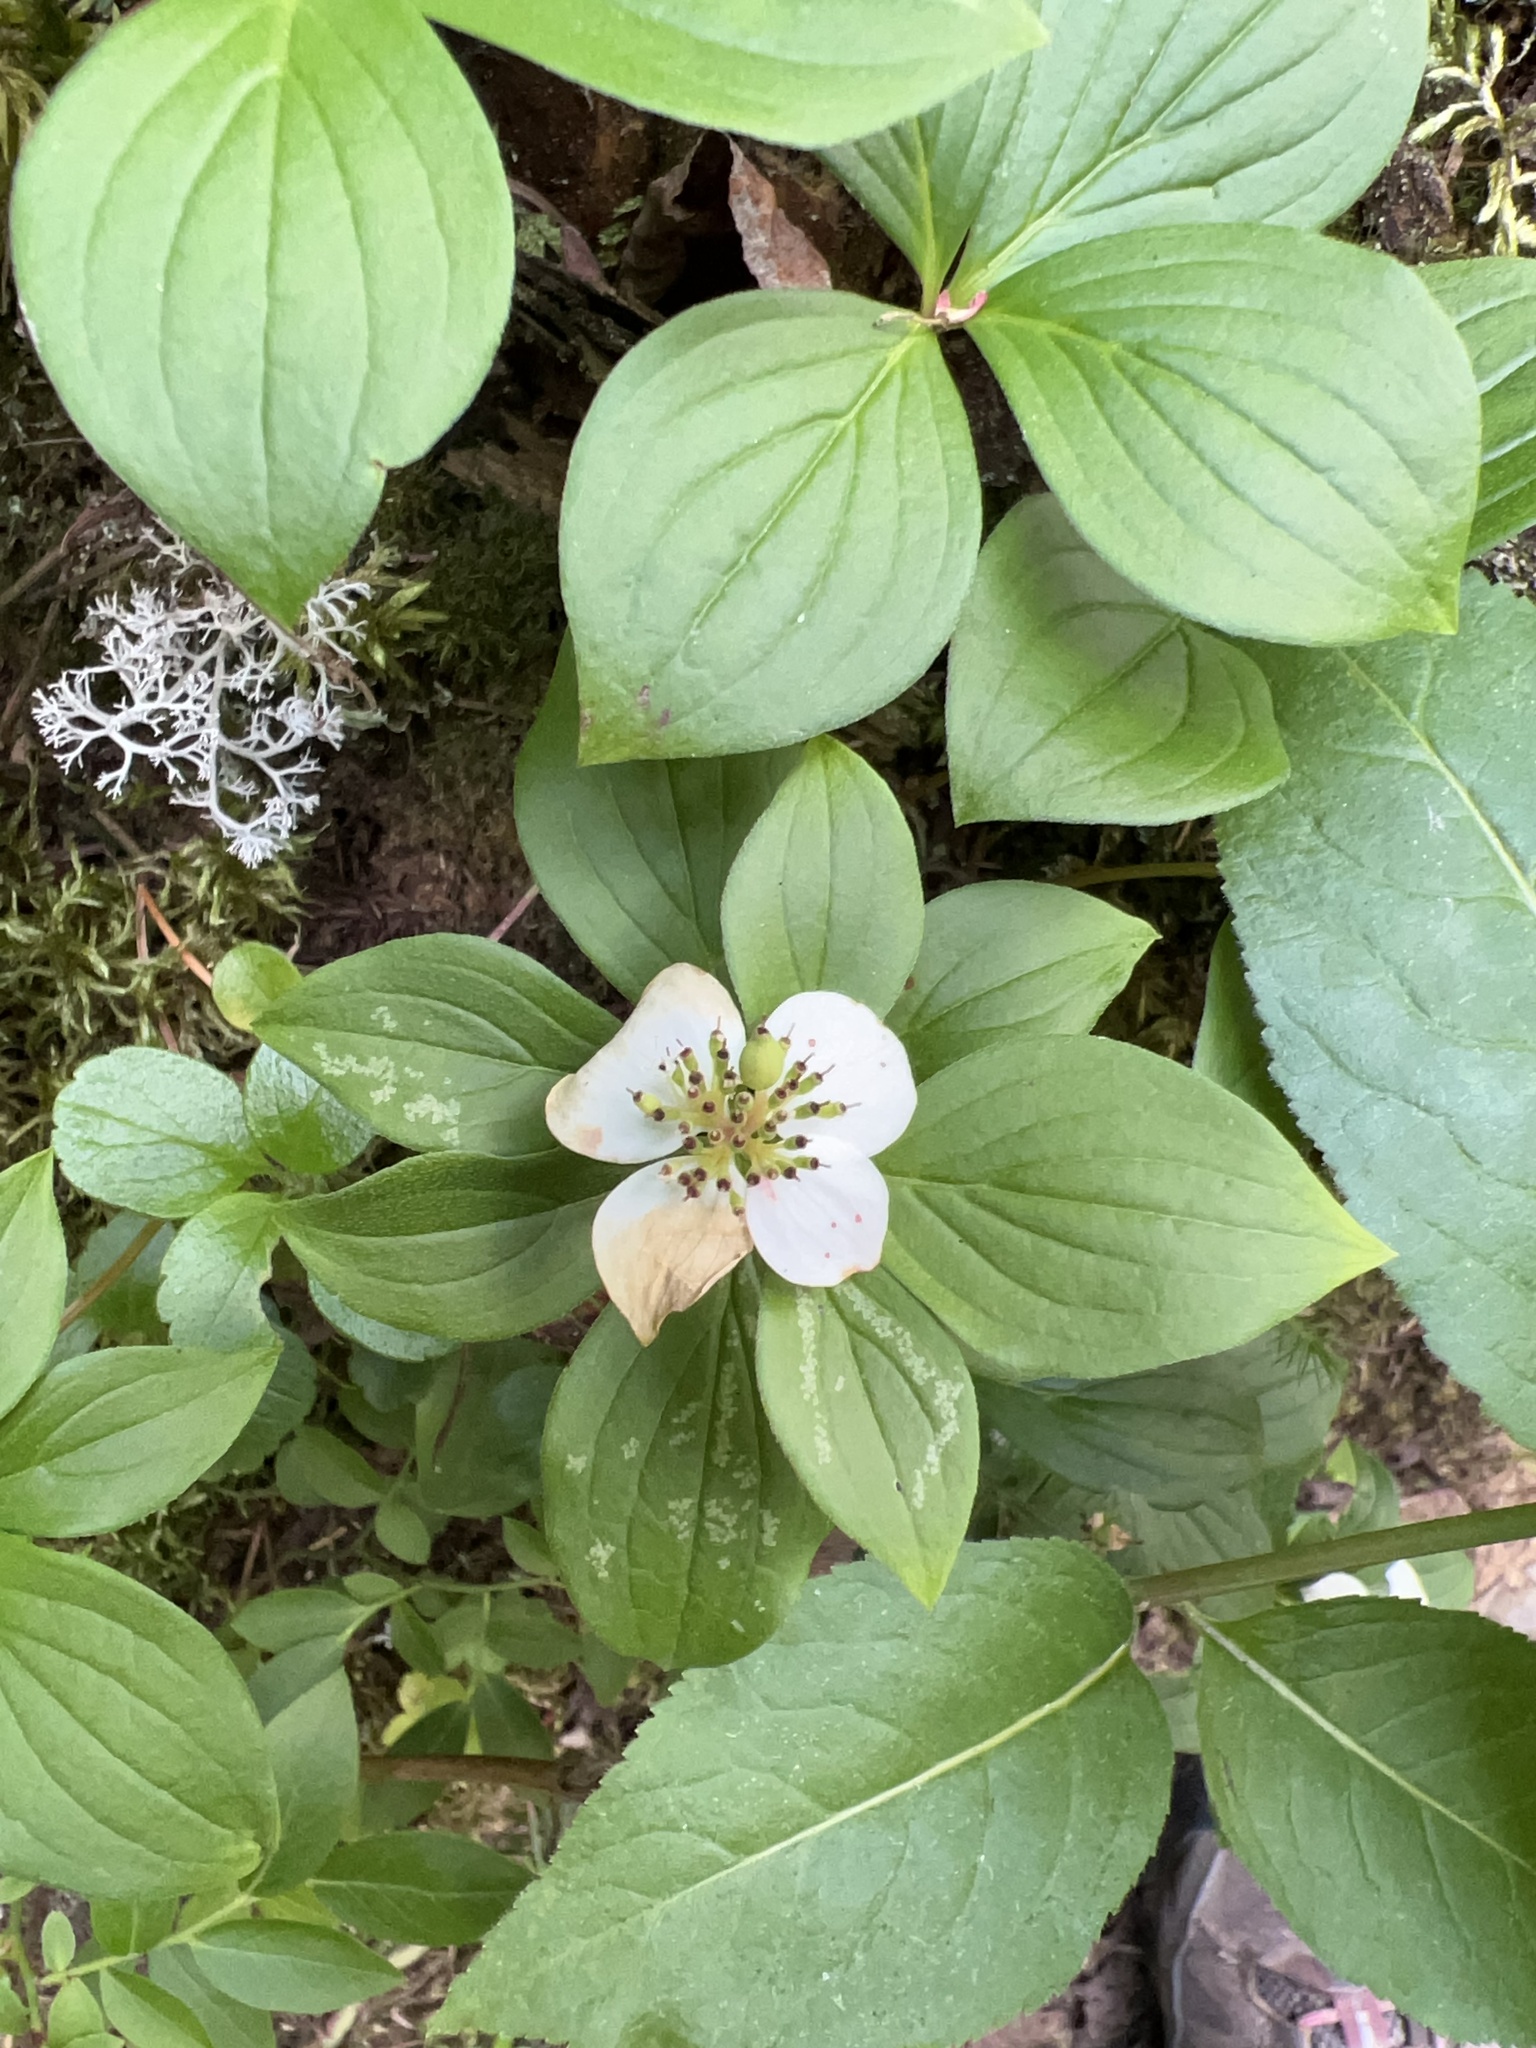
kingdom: Plantae
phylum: Tracheophyta
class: Magnoliopsida
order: Cornales
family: Cornaceae
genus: Cornus
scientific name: Cornus canadensis
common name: Creeping dogwood
